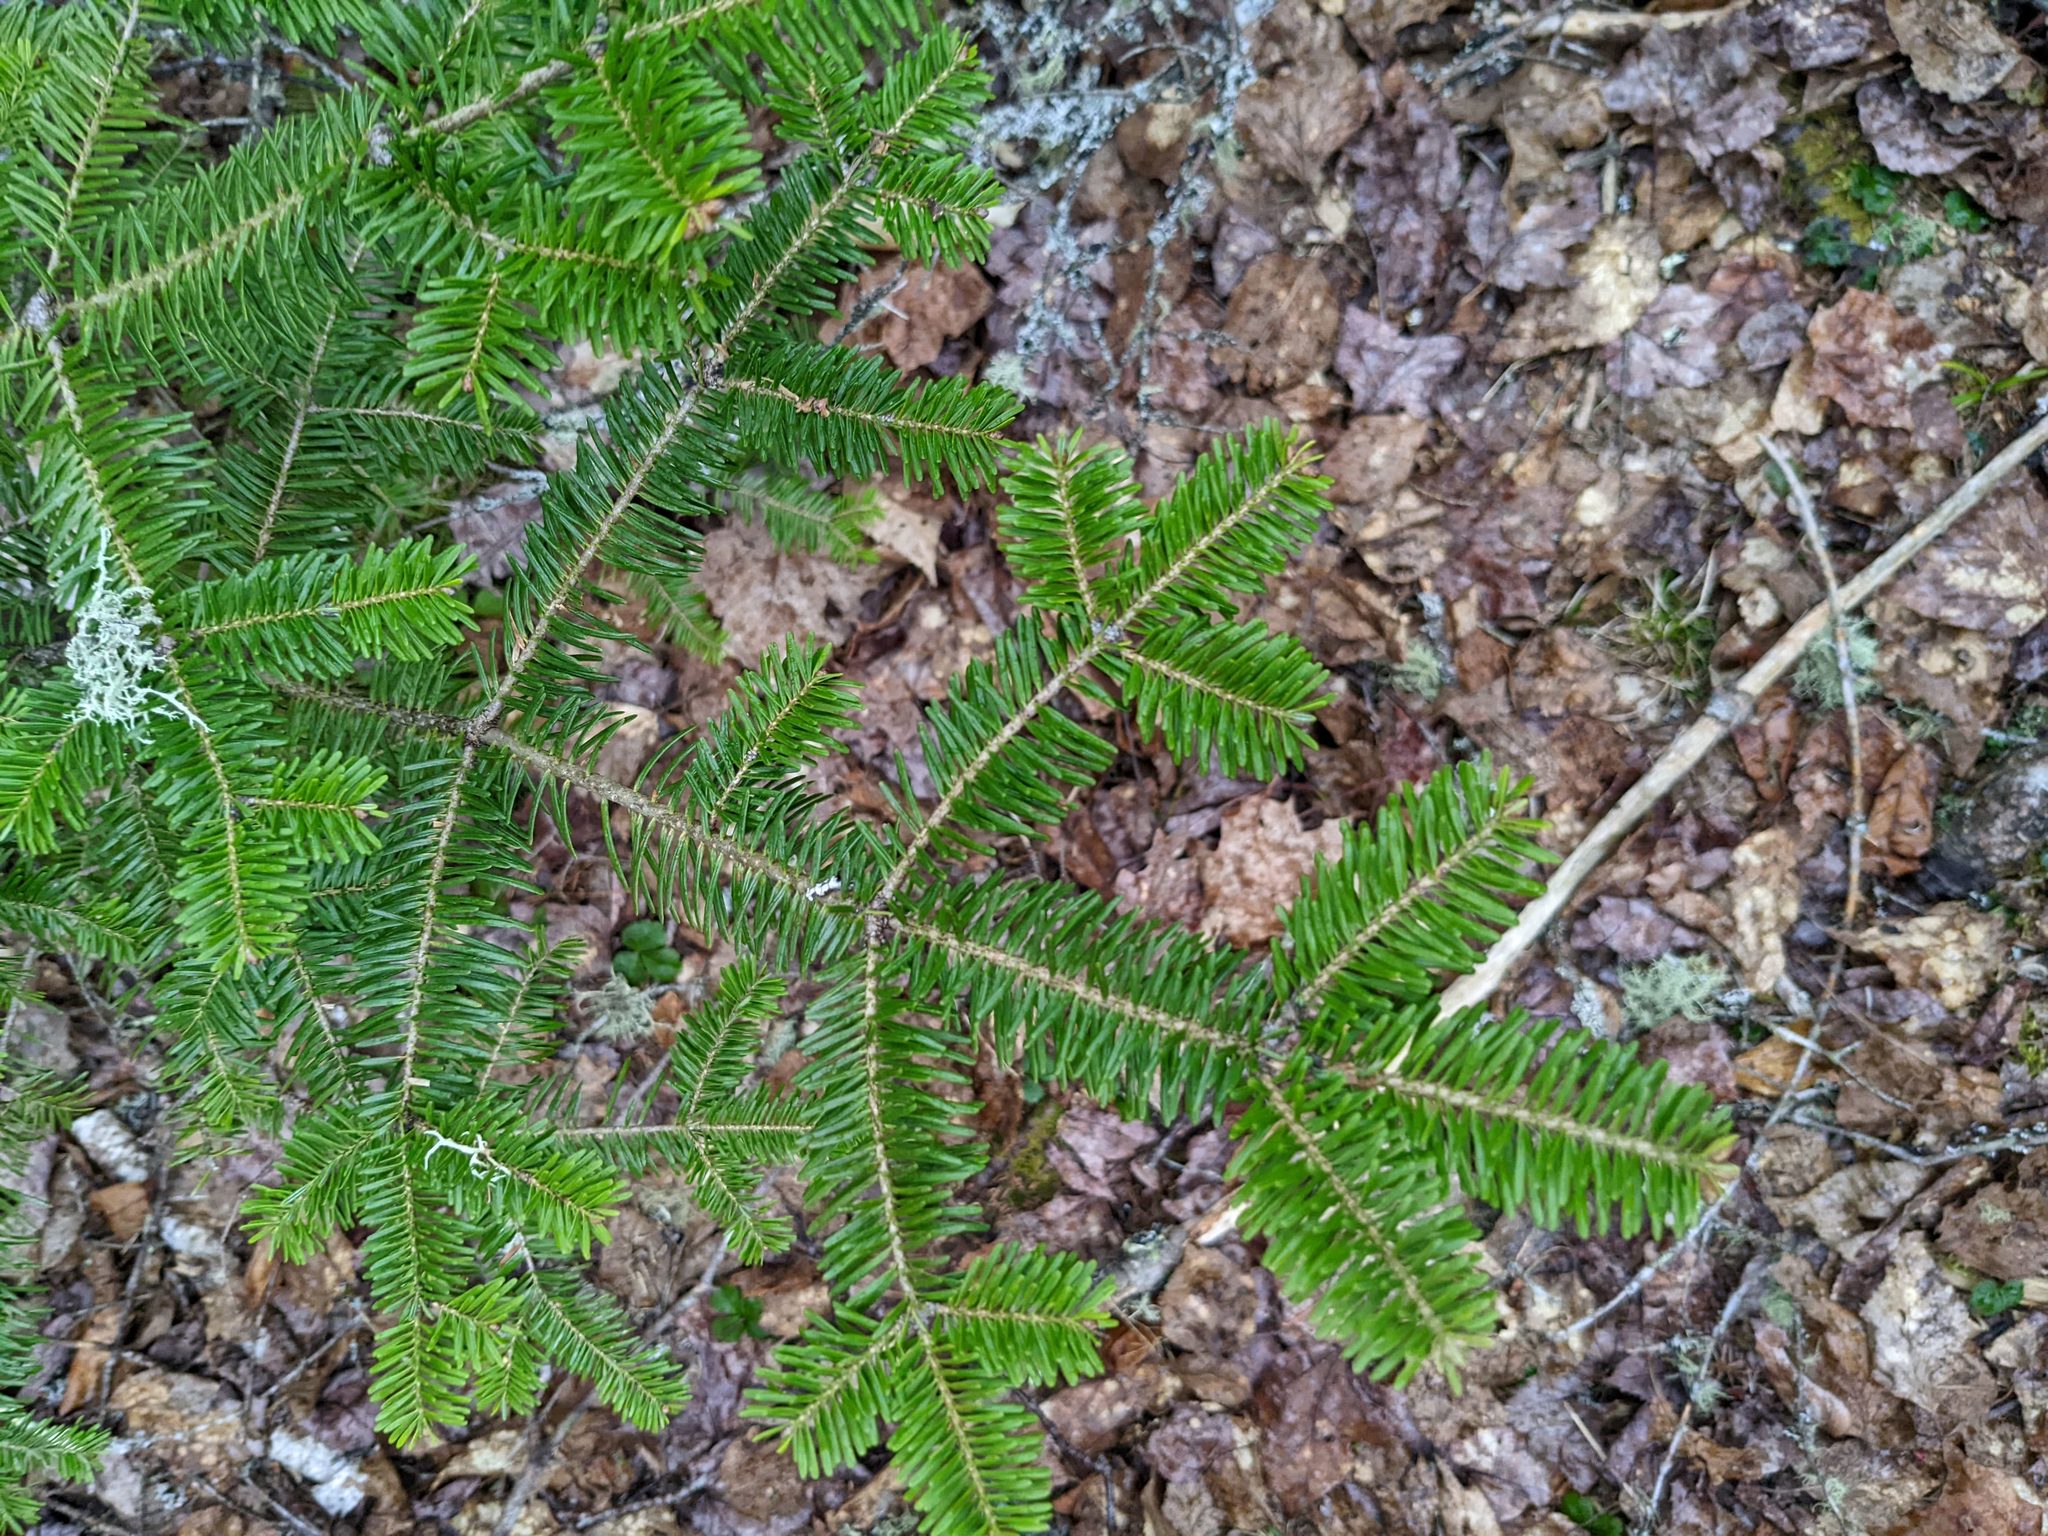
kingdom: Plantae
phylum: Tracheophyta
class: Pinopsida
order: Pinales
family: Pinaceae
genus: Abies
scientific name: Abies balsamea
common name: Balsam fir
